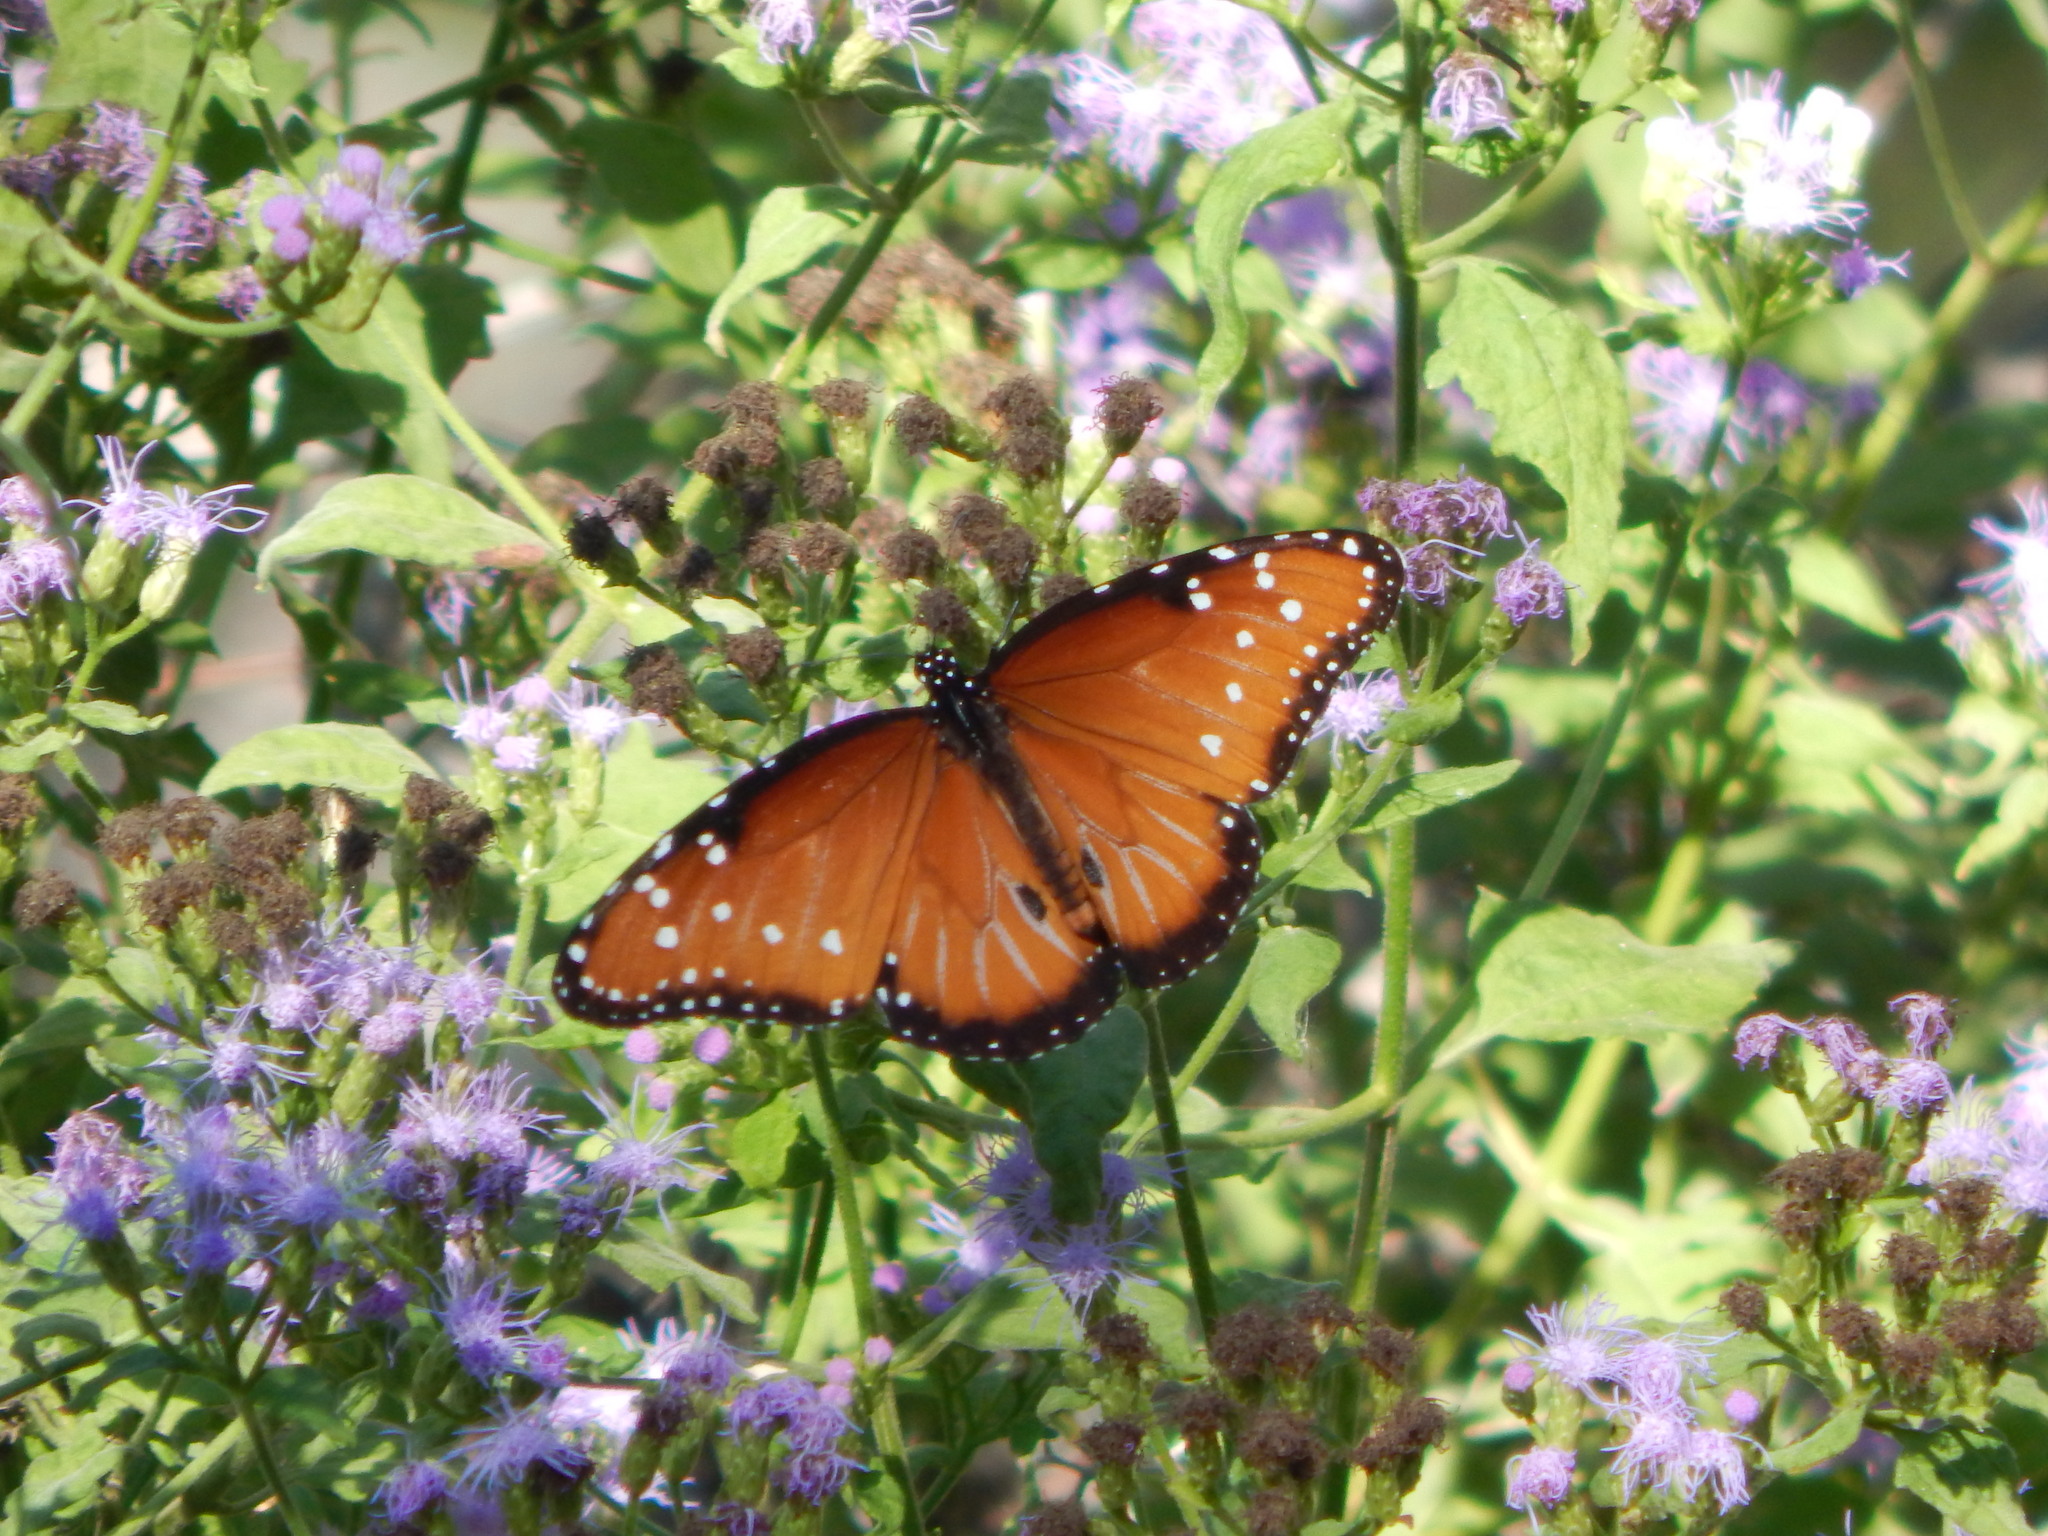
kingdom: Animalia
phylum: Arthropoda
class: Insecta
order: Lepidoptera
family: Nymphalidae
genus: Danaus
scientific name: Danaus gilippus
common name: Queen
